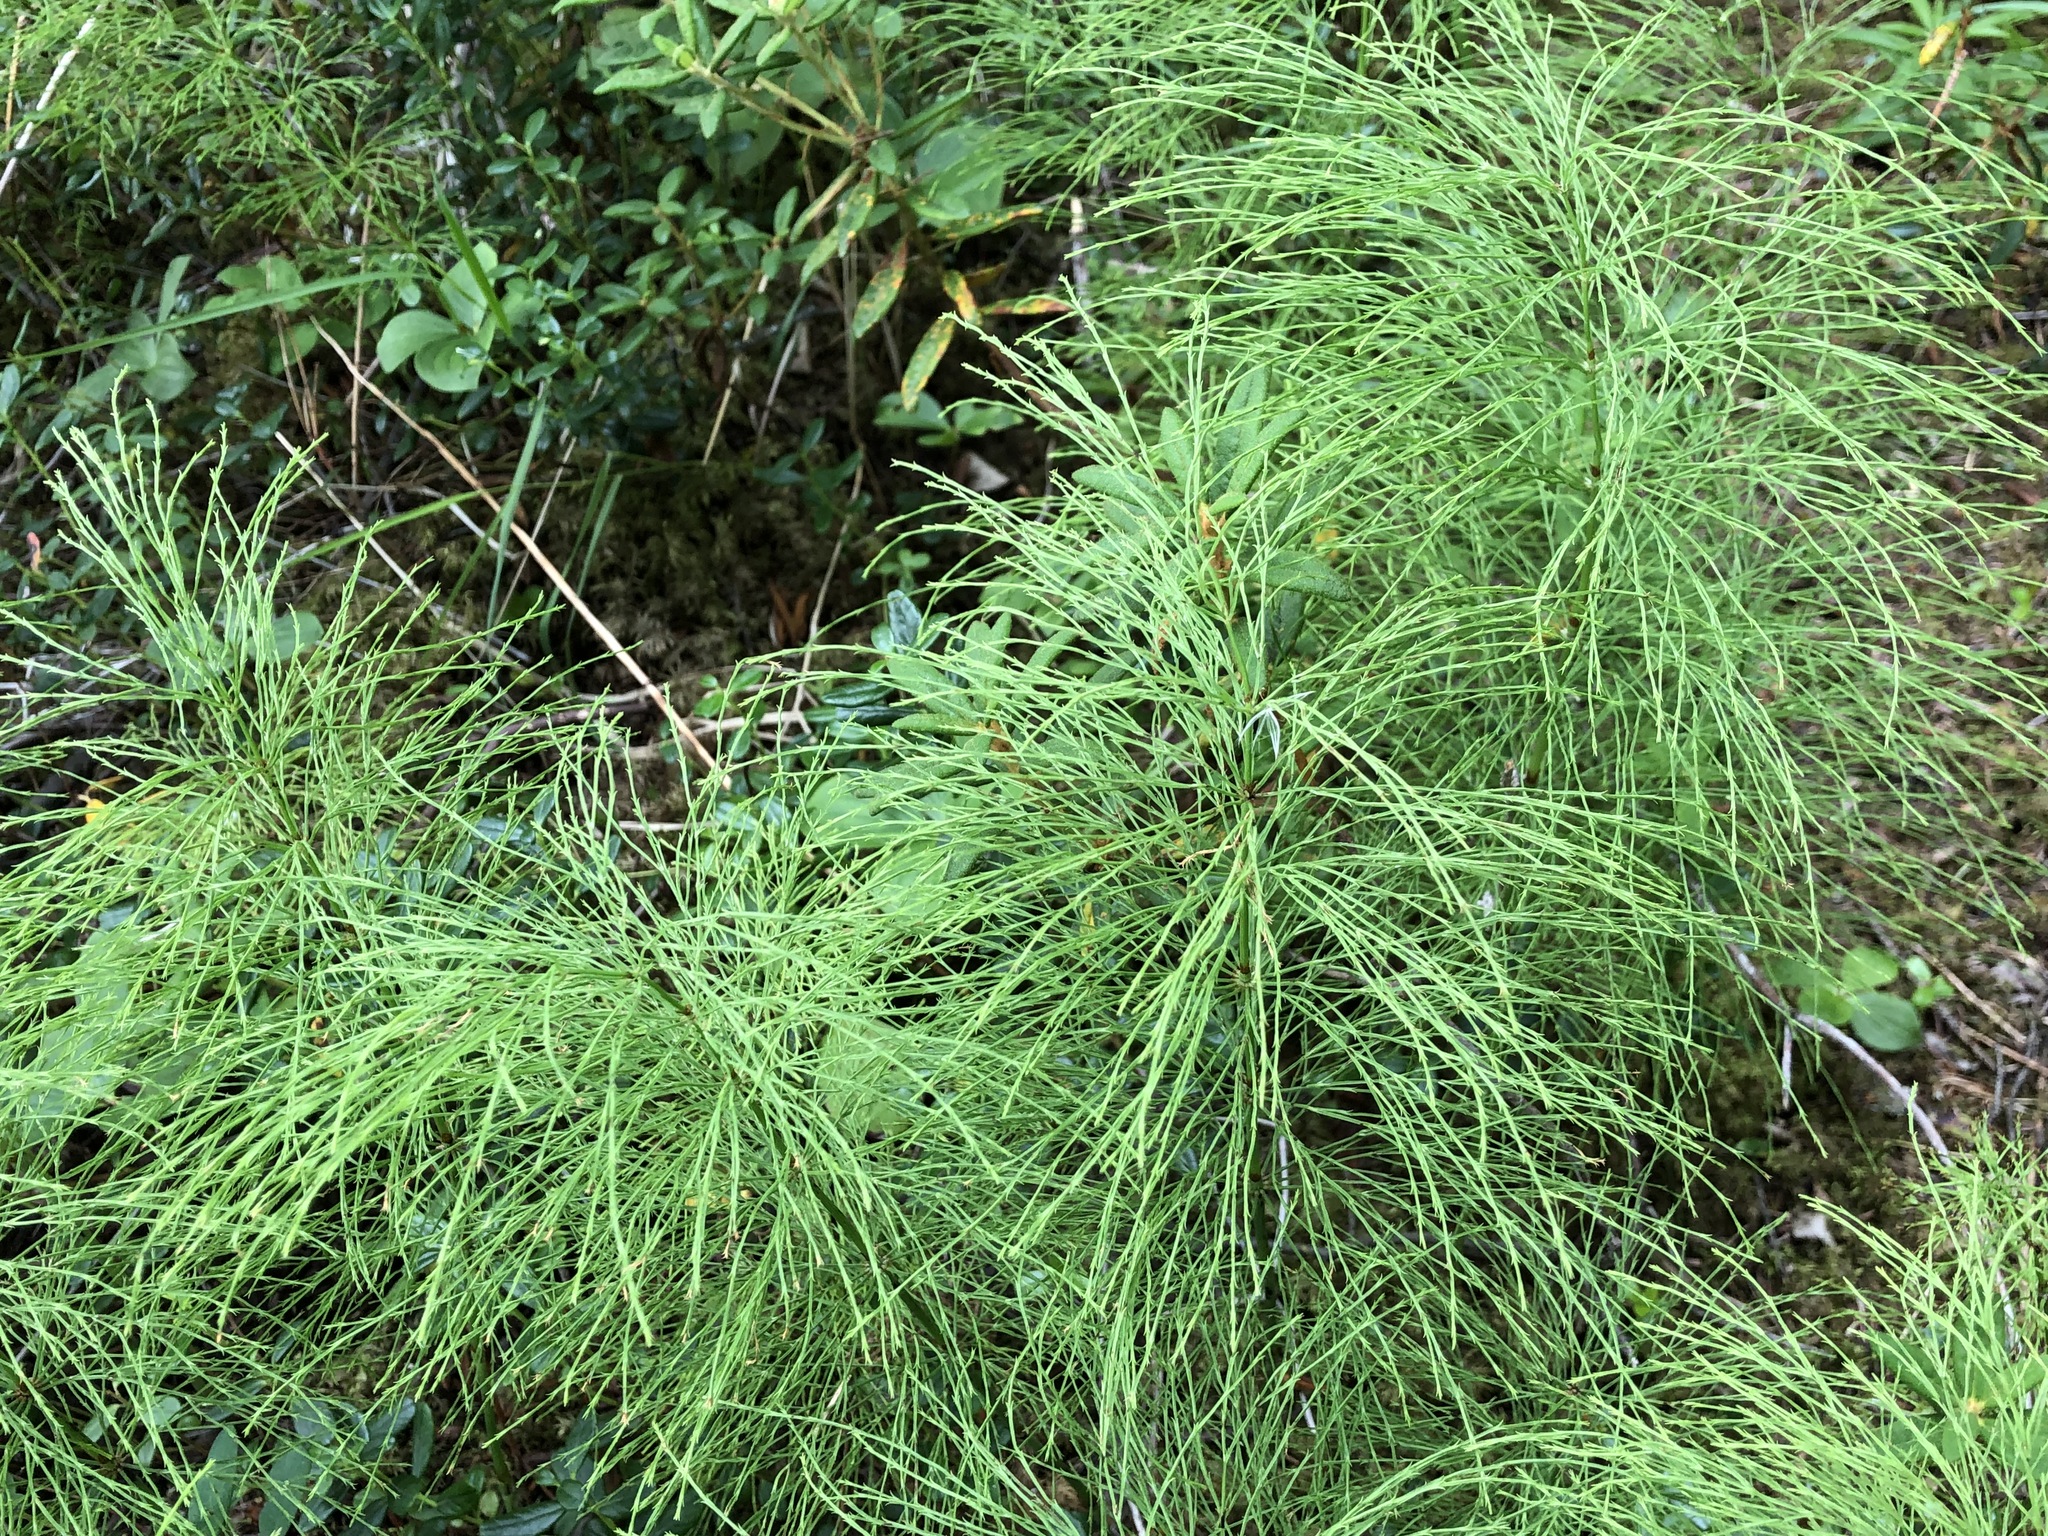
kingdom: Plantae
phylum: Tracheophyta
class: Polypodiopsida
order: Equisetales
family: Equisetaceae
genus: Equisetum
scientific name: Equisetum sylvaticum
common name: Wood horsetail
